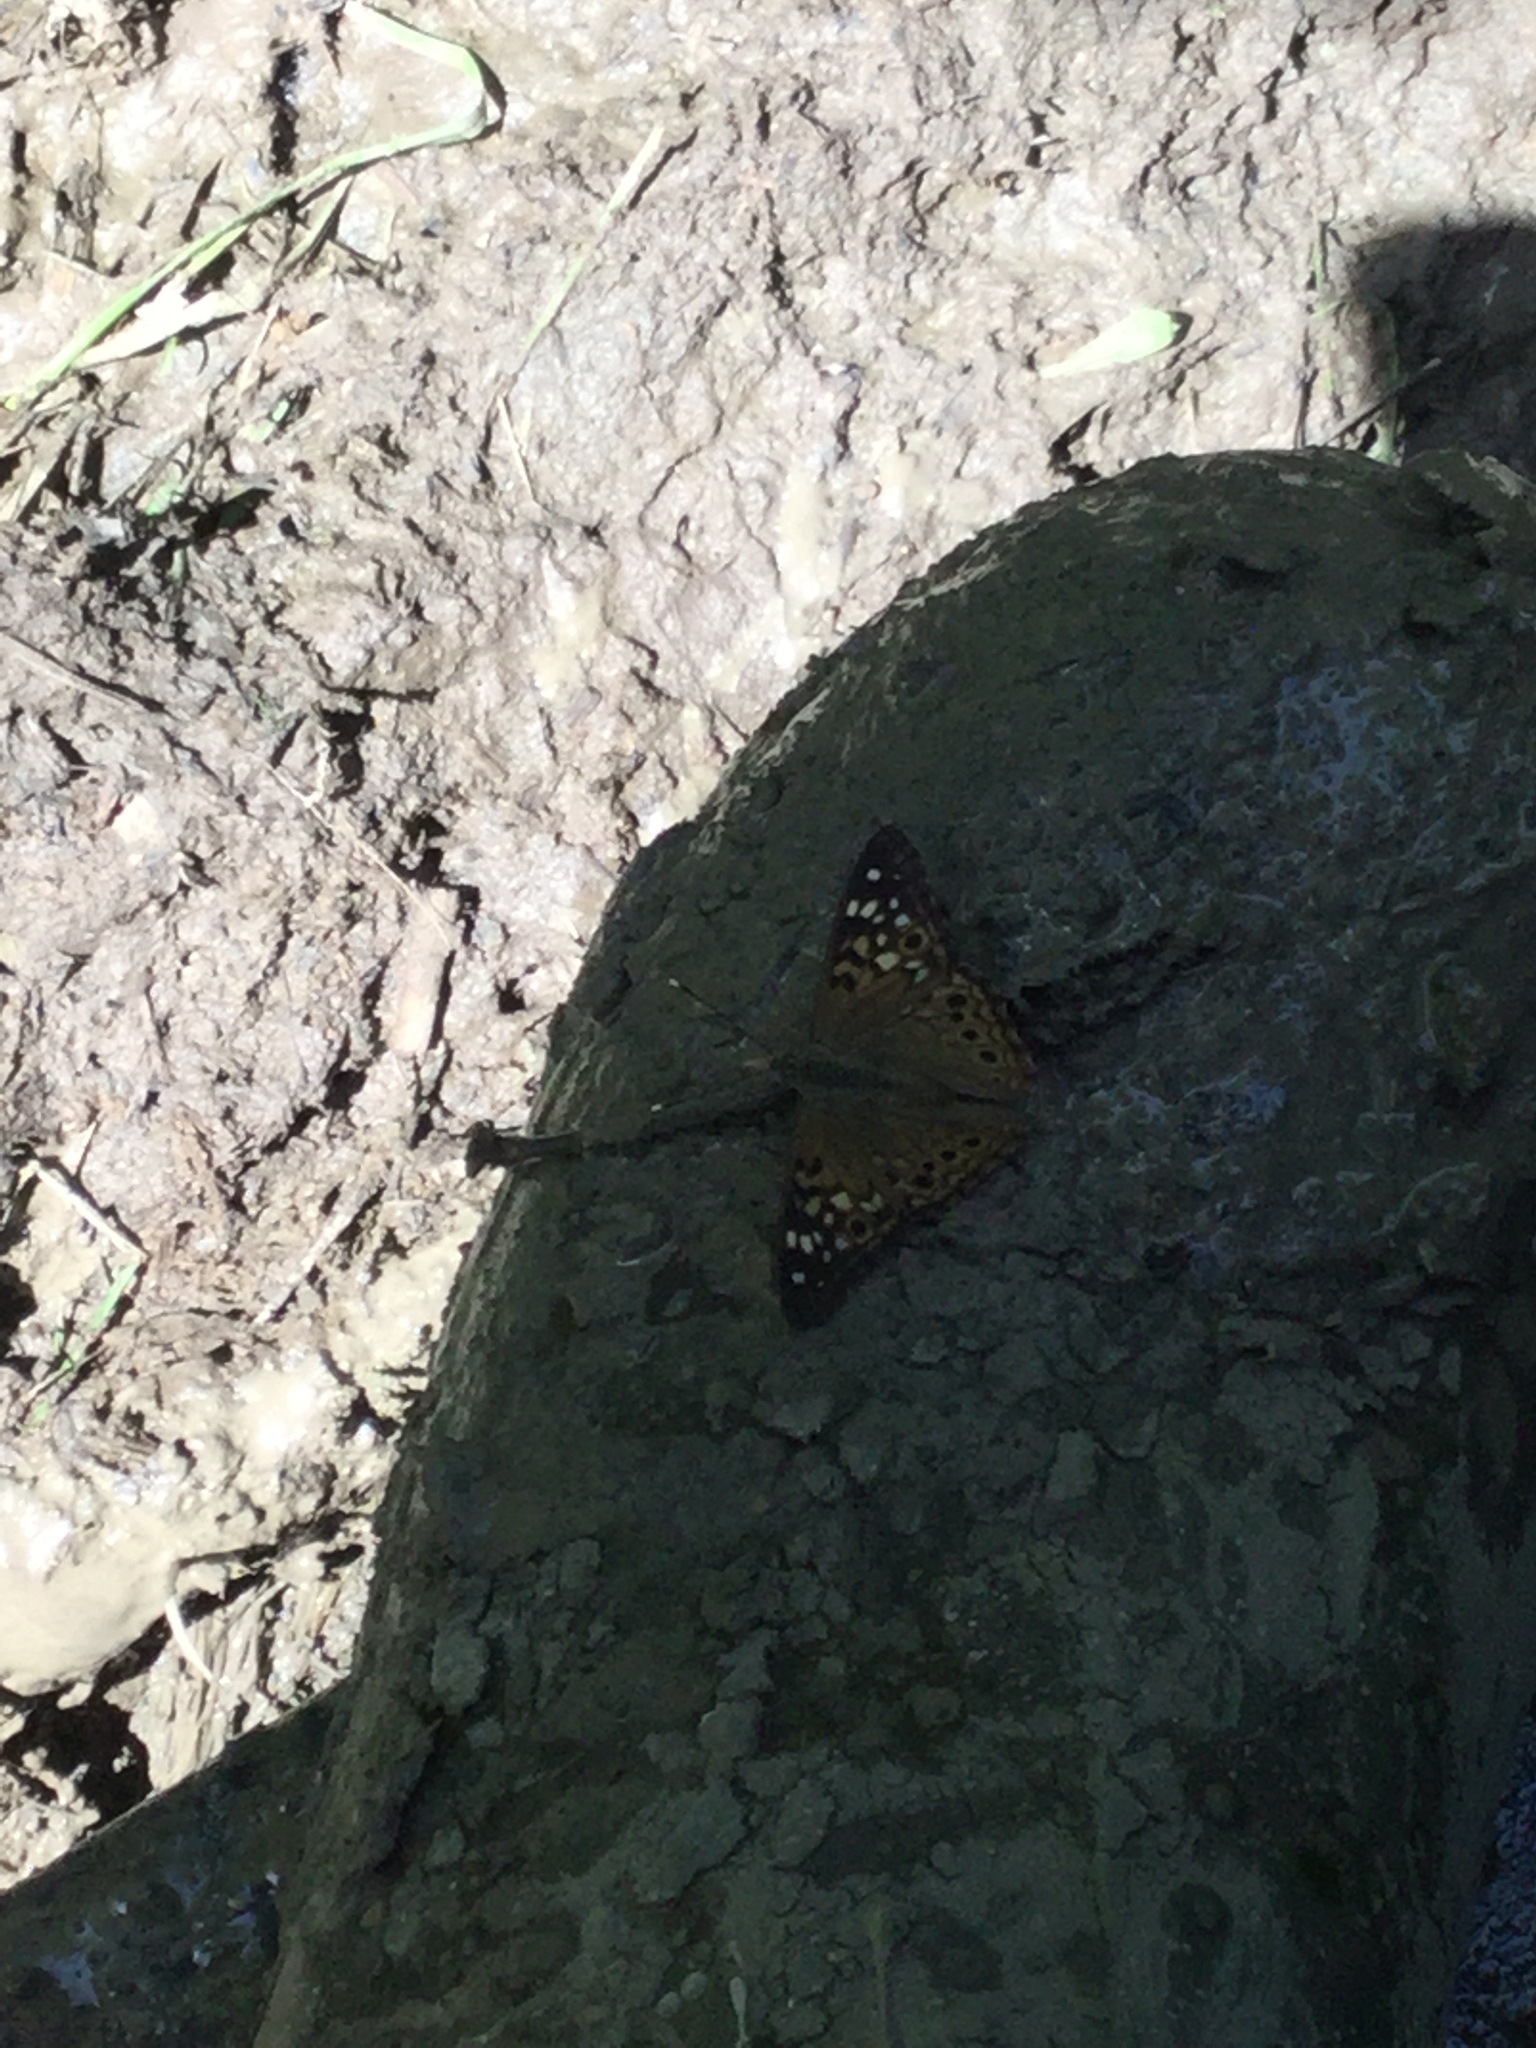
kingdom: Animalia
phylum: Arthropoda
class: Insecta
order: Lepidoptera
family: Nymphalidae
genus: Asterocampa
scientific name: Asterocampa celtis
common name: Hackberry emperor
